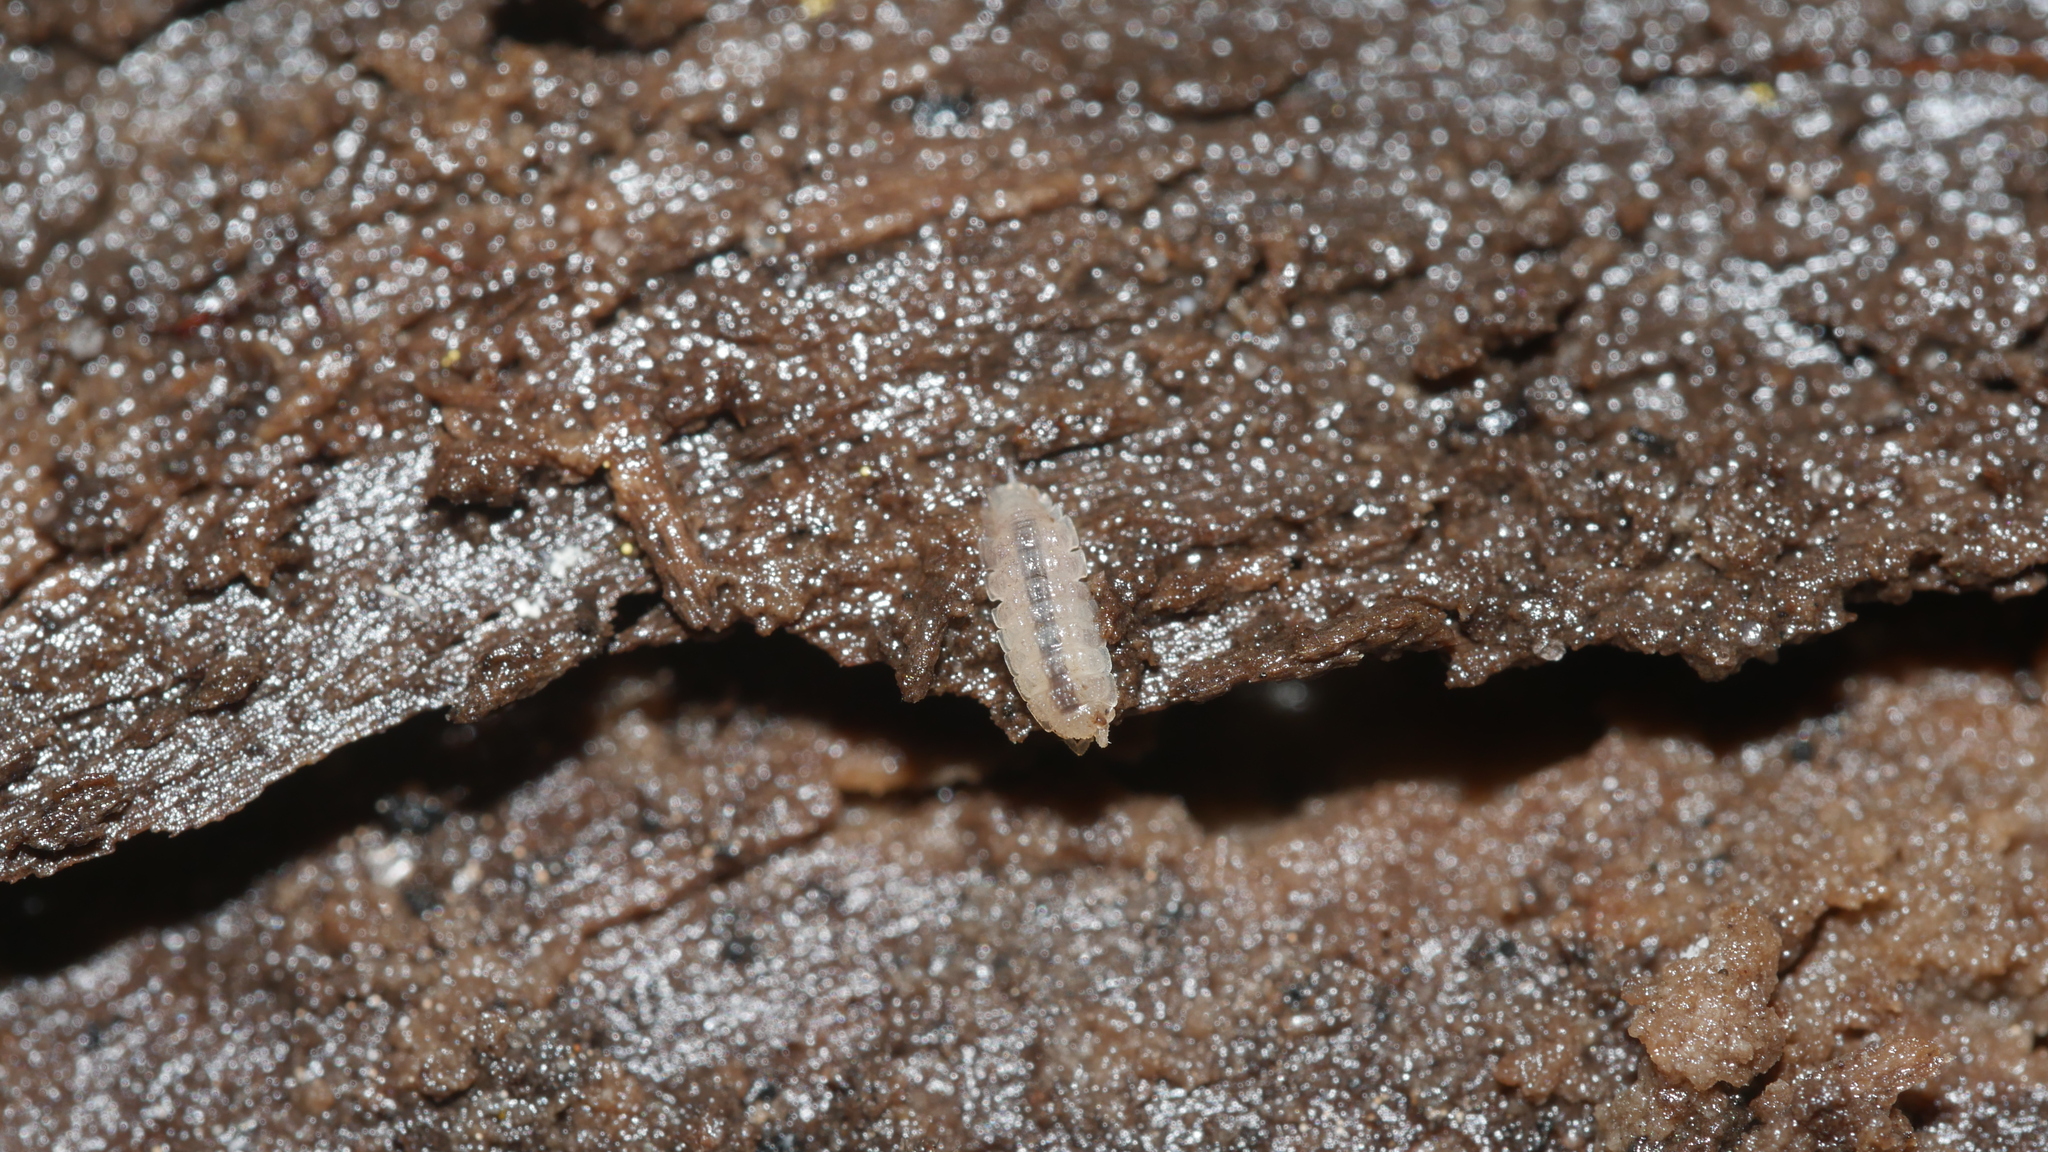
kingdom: Animalia
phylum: Arthropoda
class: Malacostraca
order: Isopoda
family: Trichoniscidae
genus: Haplophthalmus
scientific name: Haplophthalmus danicus
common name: Pillbug
